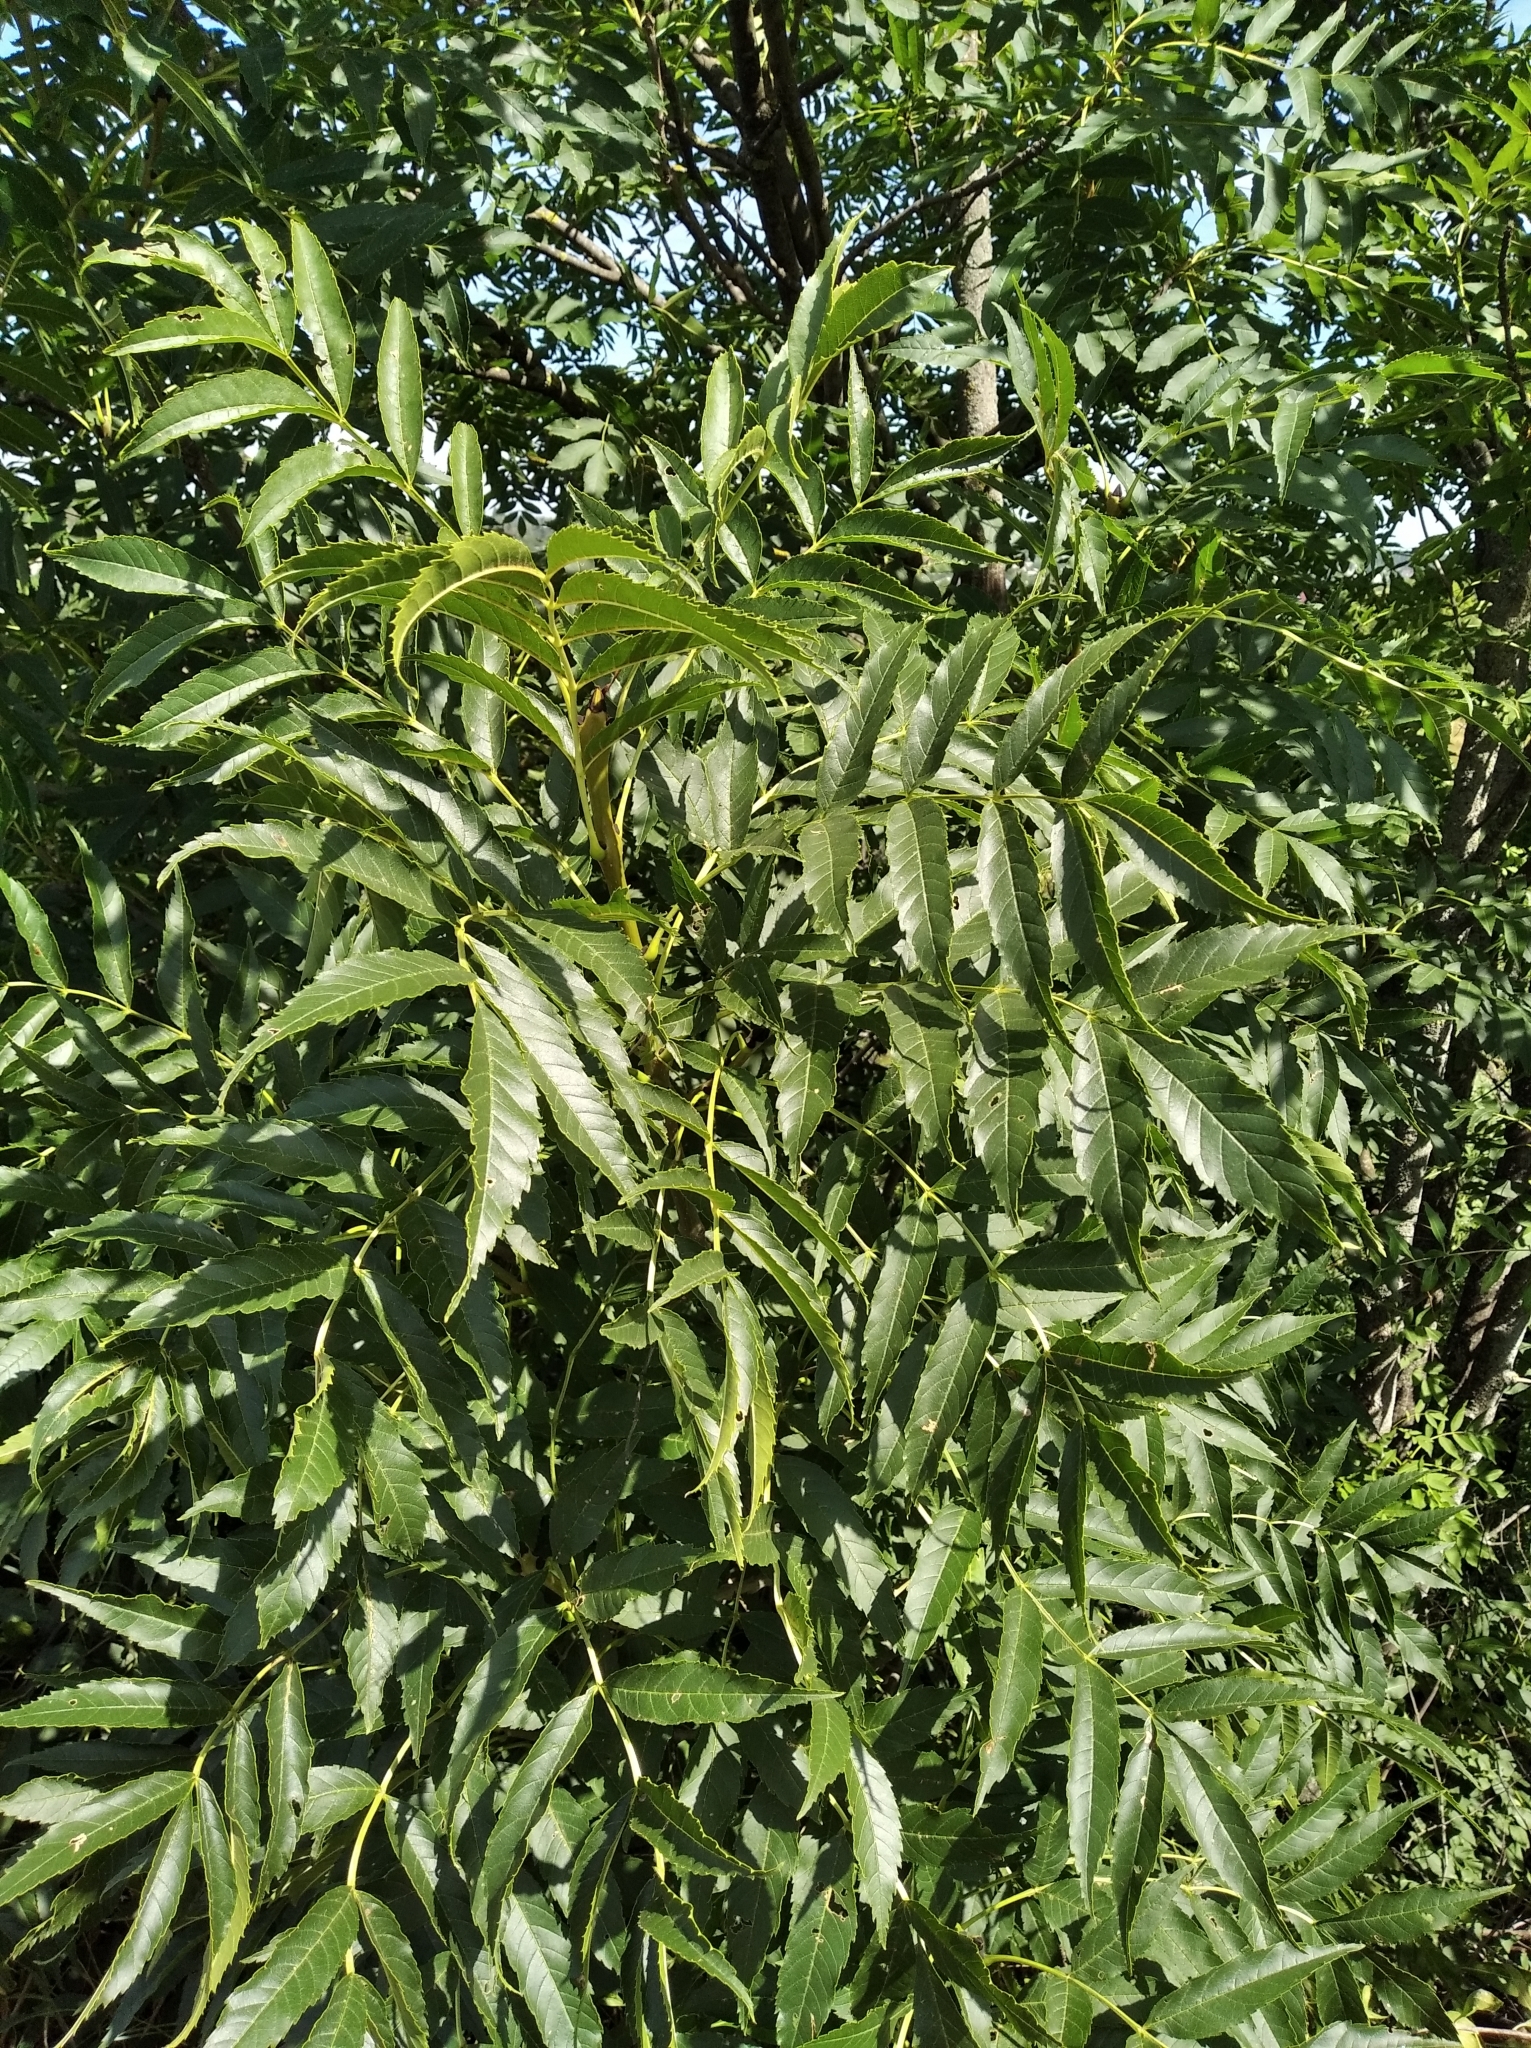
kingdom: Plantae
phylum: Tracheophyta
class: Magnoliopsida
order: Lamiales
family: Oleaceae
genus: Fraxinus
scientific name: Fraxinus excelsior
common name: European ash
